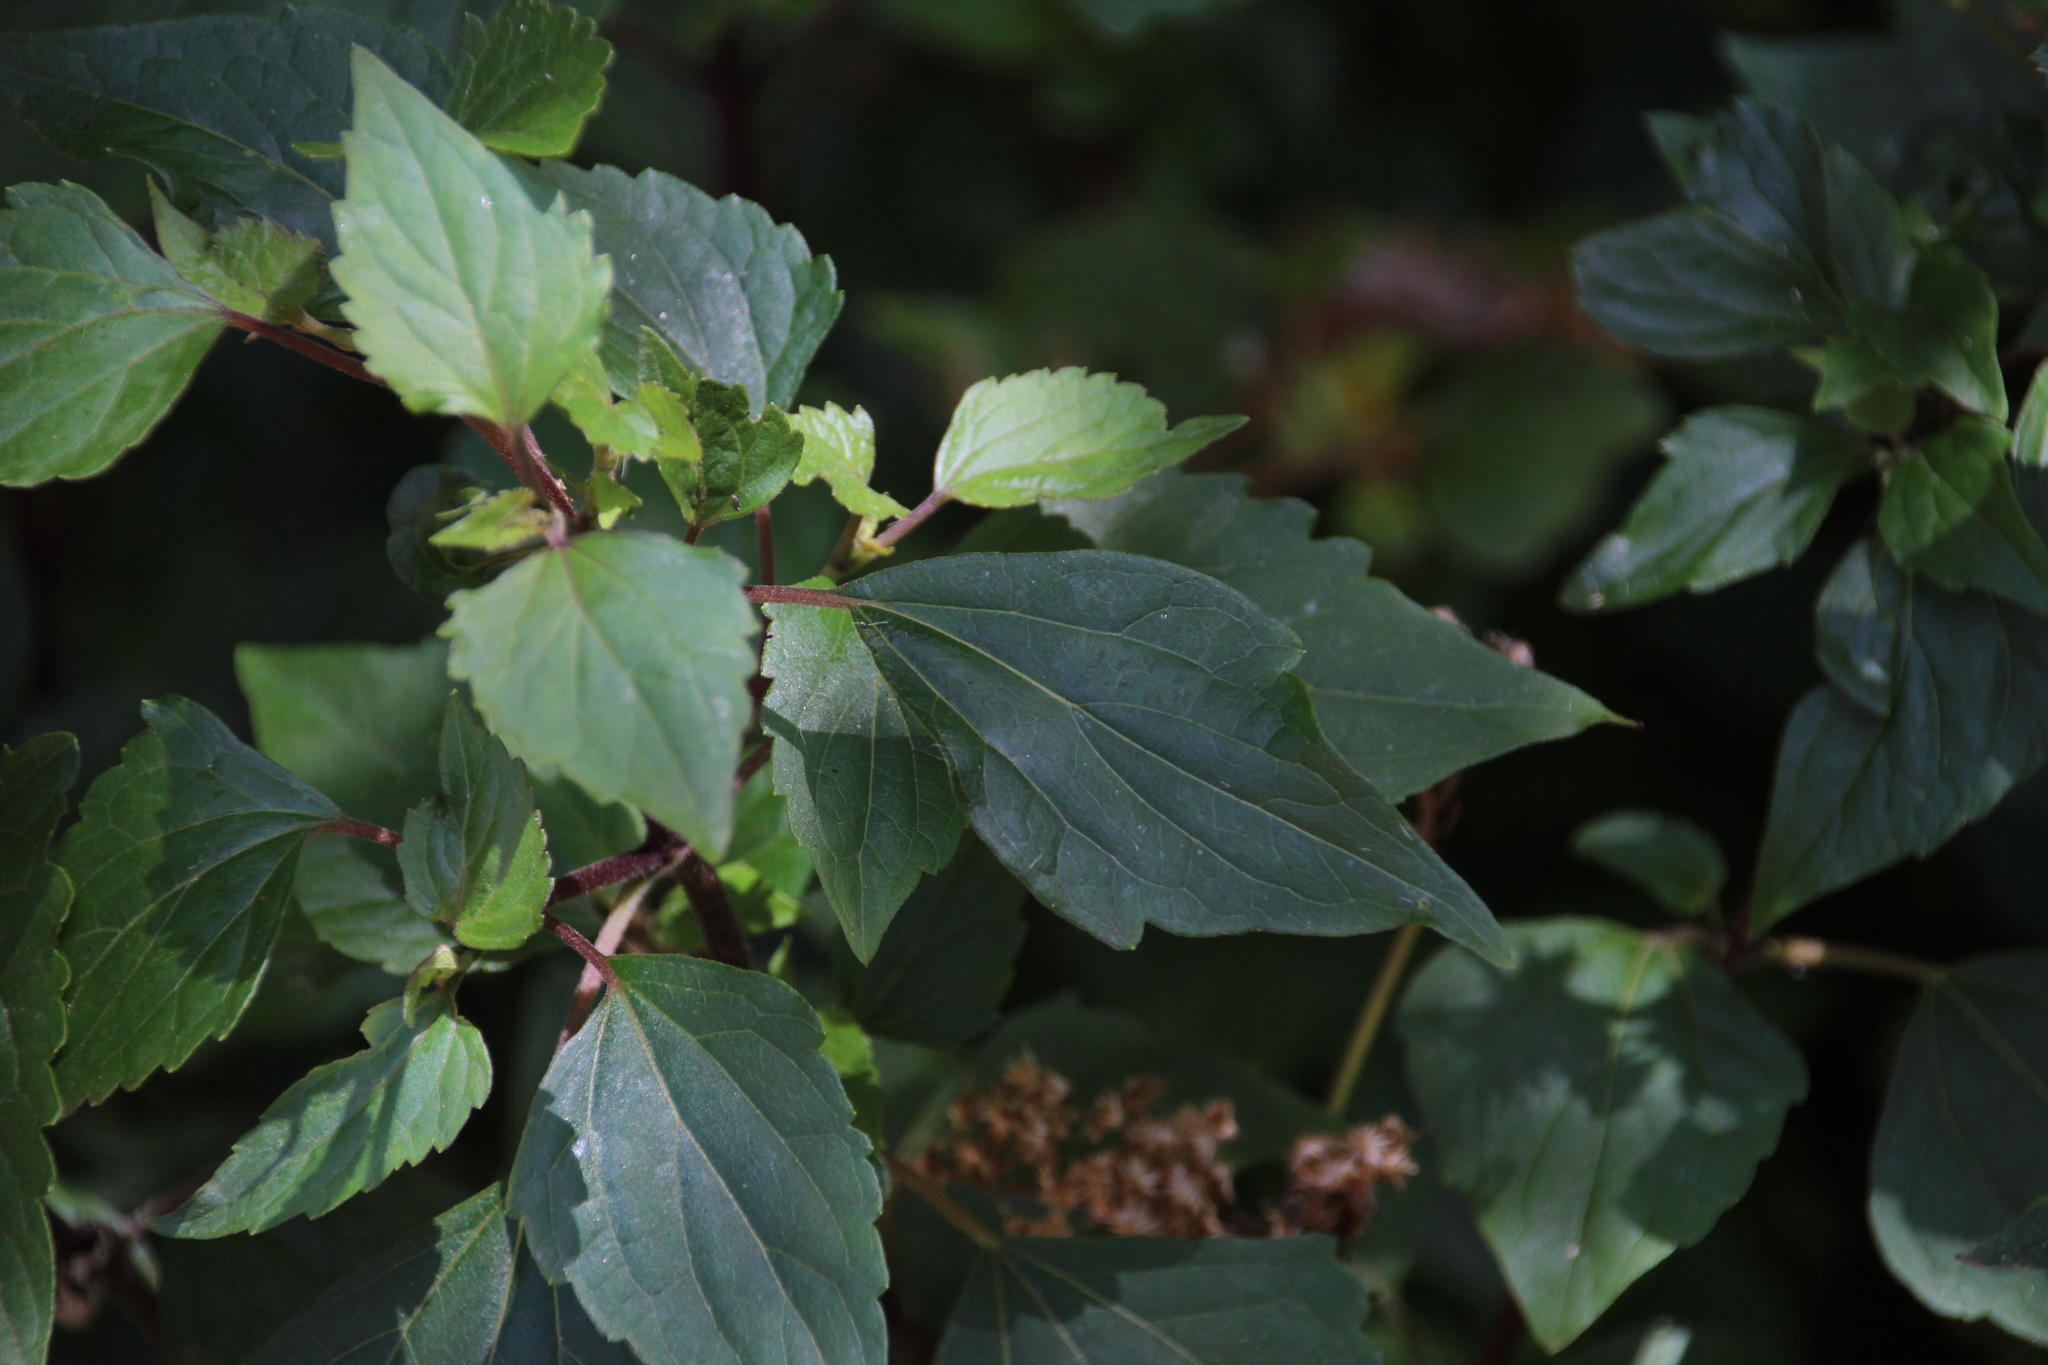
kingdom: Plantae
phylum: Tracheophyta
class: Magnoliopsida
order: Asterales
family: Asteraceae
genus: Ageratina
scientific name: Ageratina adenophora
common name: Sticky snakeroot
